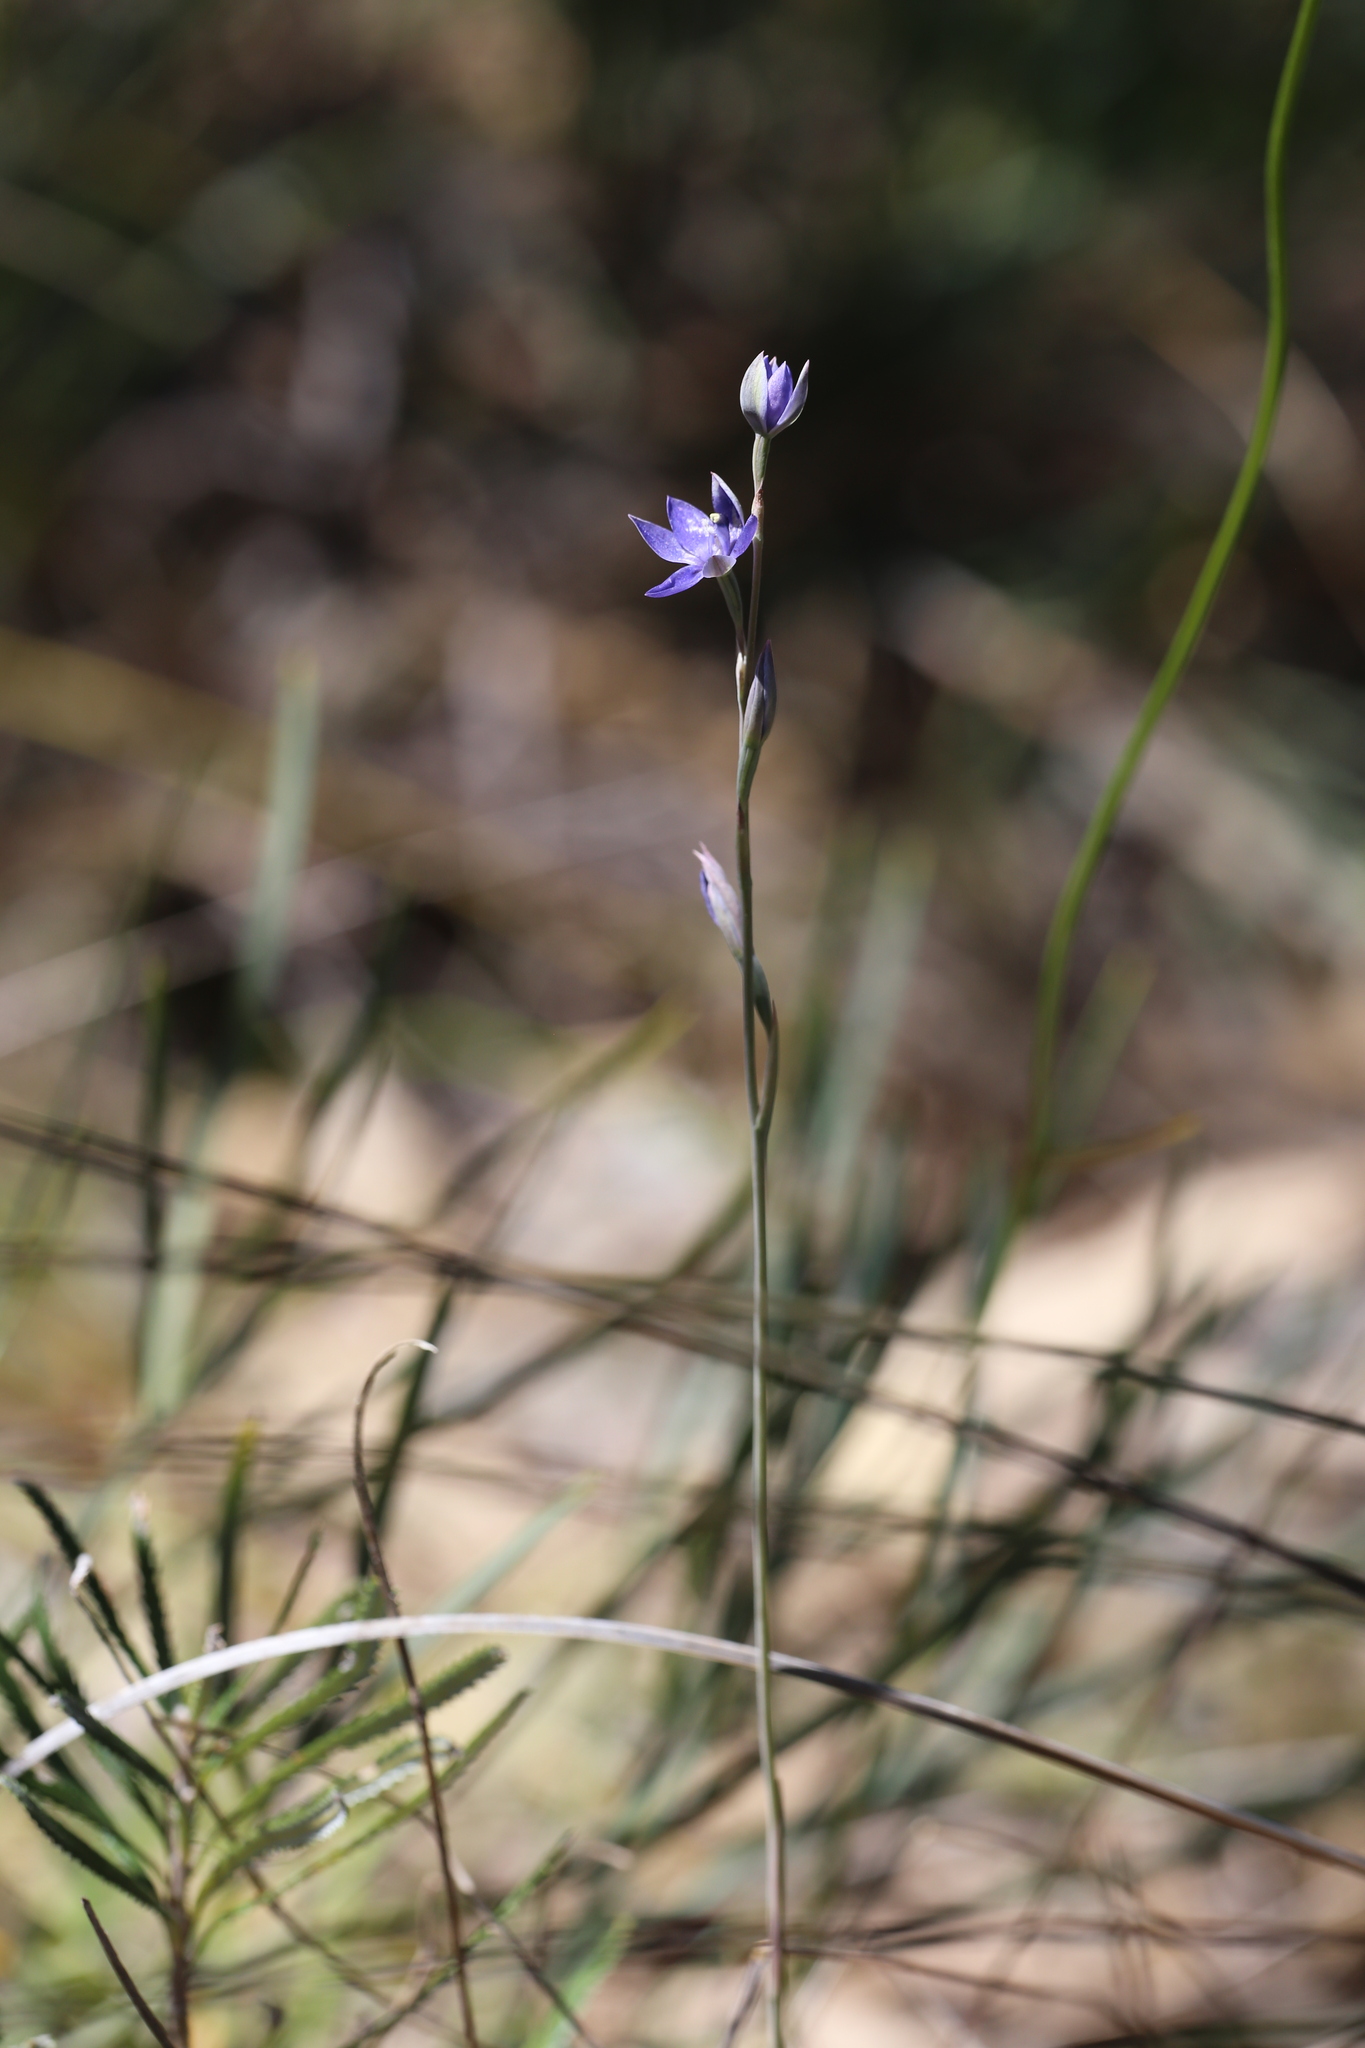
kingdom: Plantae
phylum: Tracheophyta
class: Liliopsida
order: Asparagales
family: Orchidaceae
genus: Thelymitra
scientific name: Thelymitra graminea
